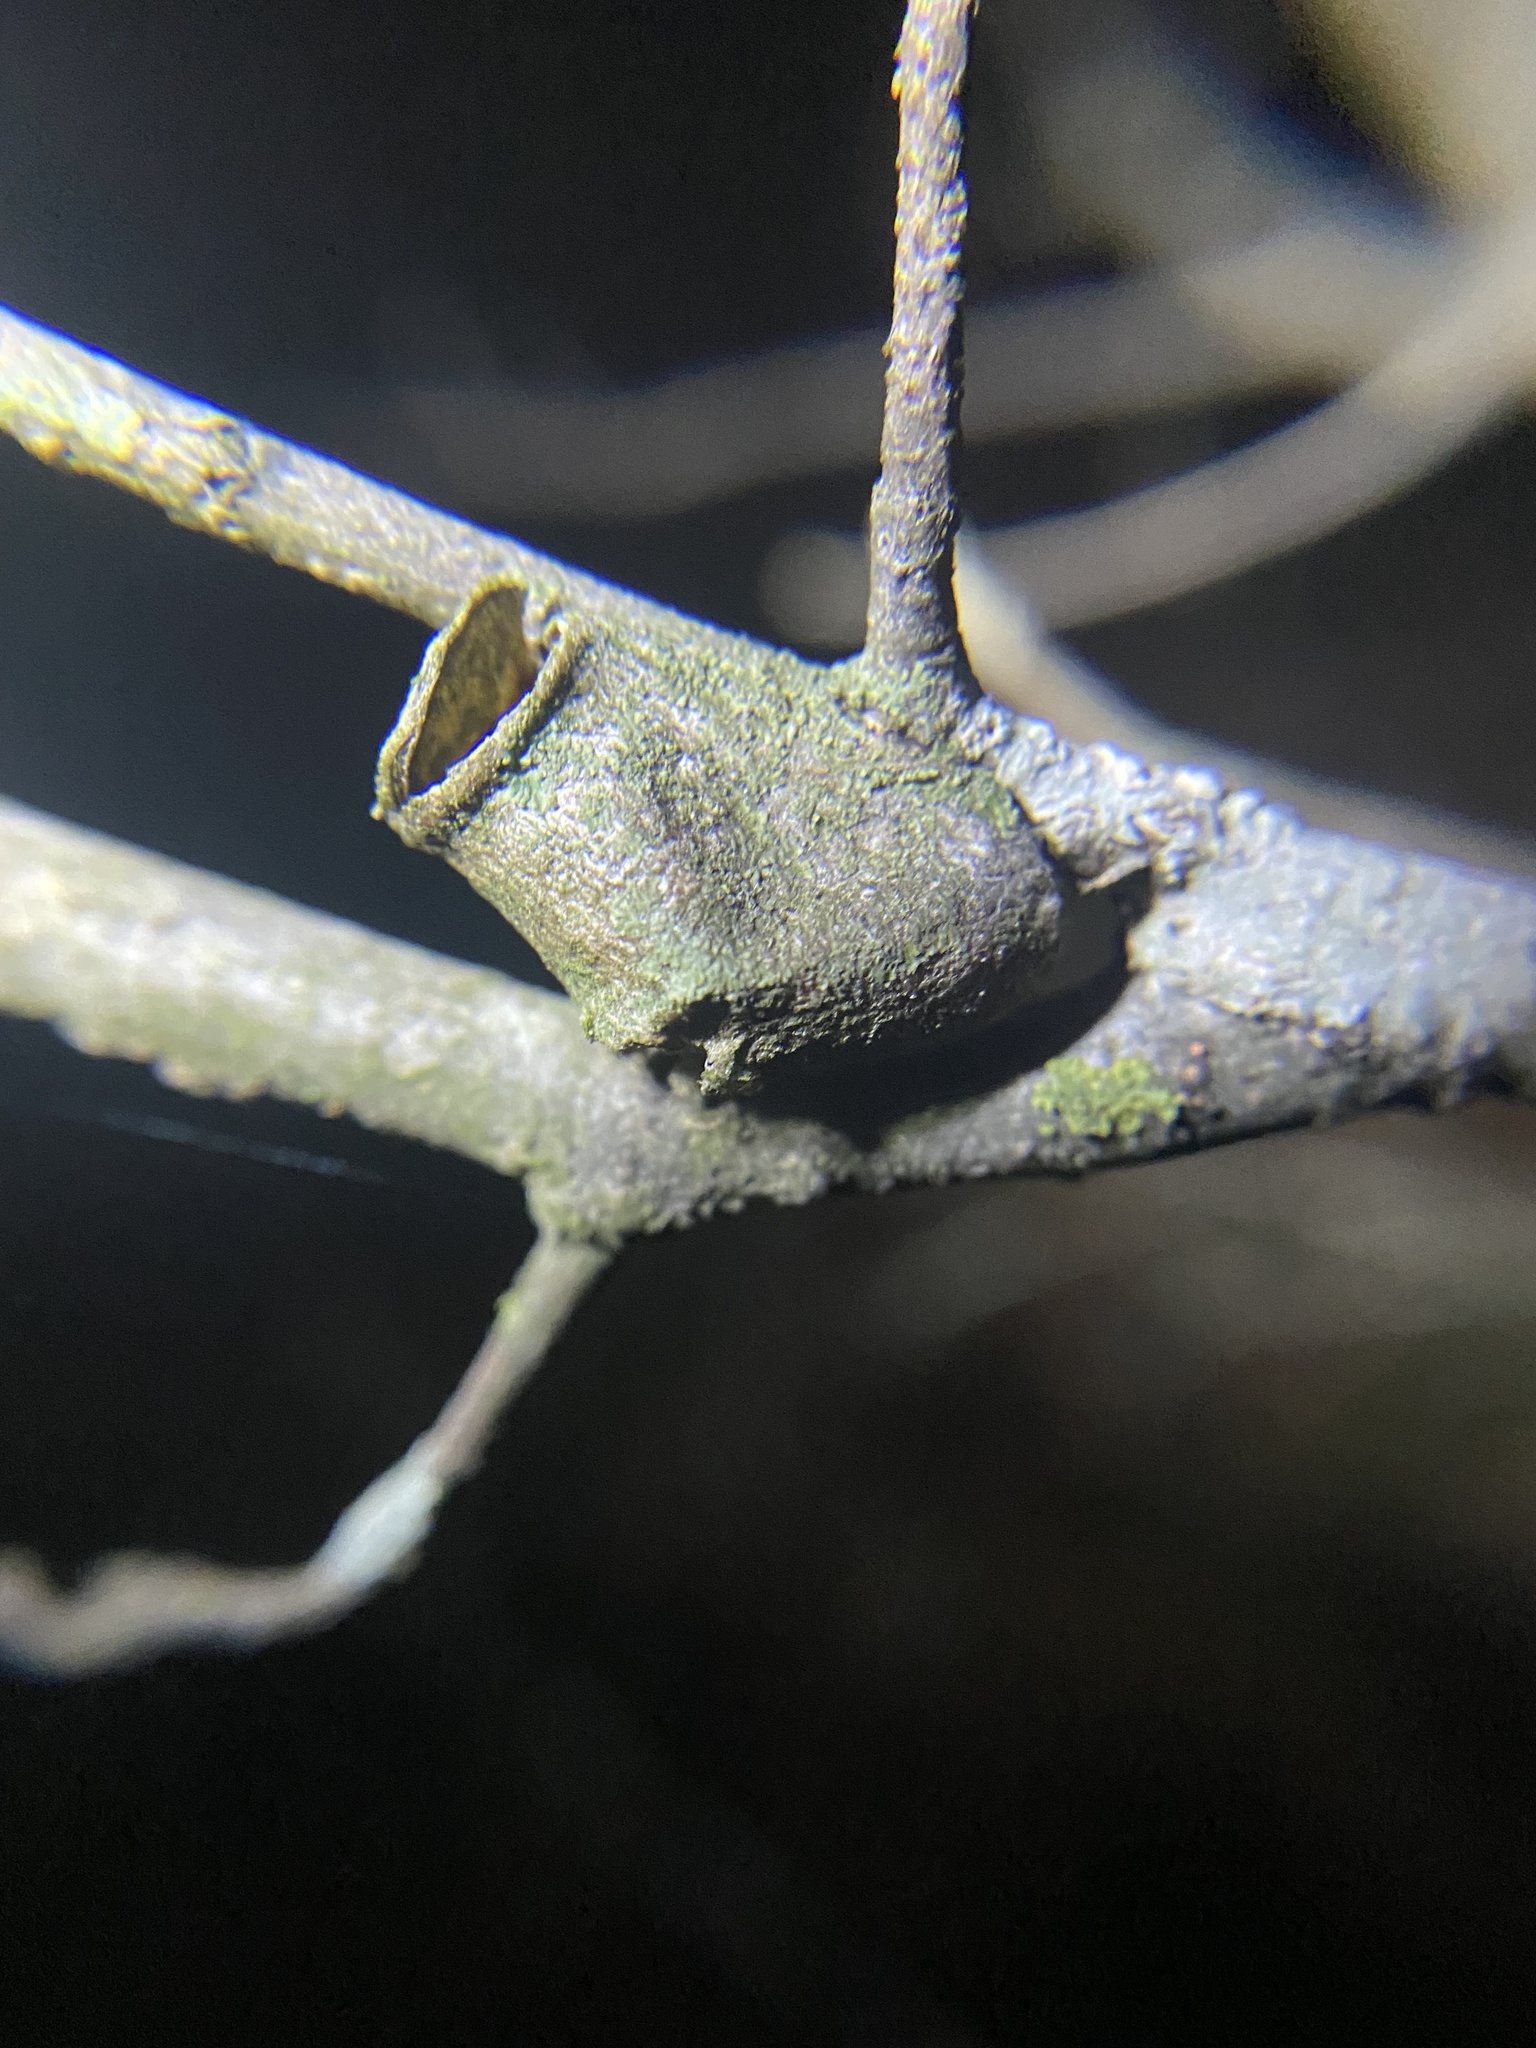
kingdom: Animalia
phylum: Arthropoda
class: Insecta
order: Lepidoptera
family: Megalopygidae
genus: Megalopyge
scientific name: Megalopyge
